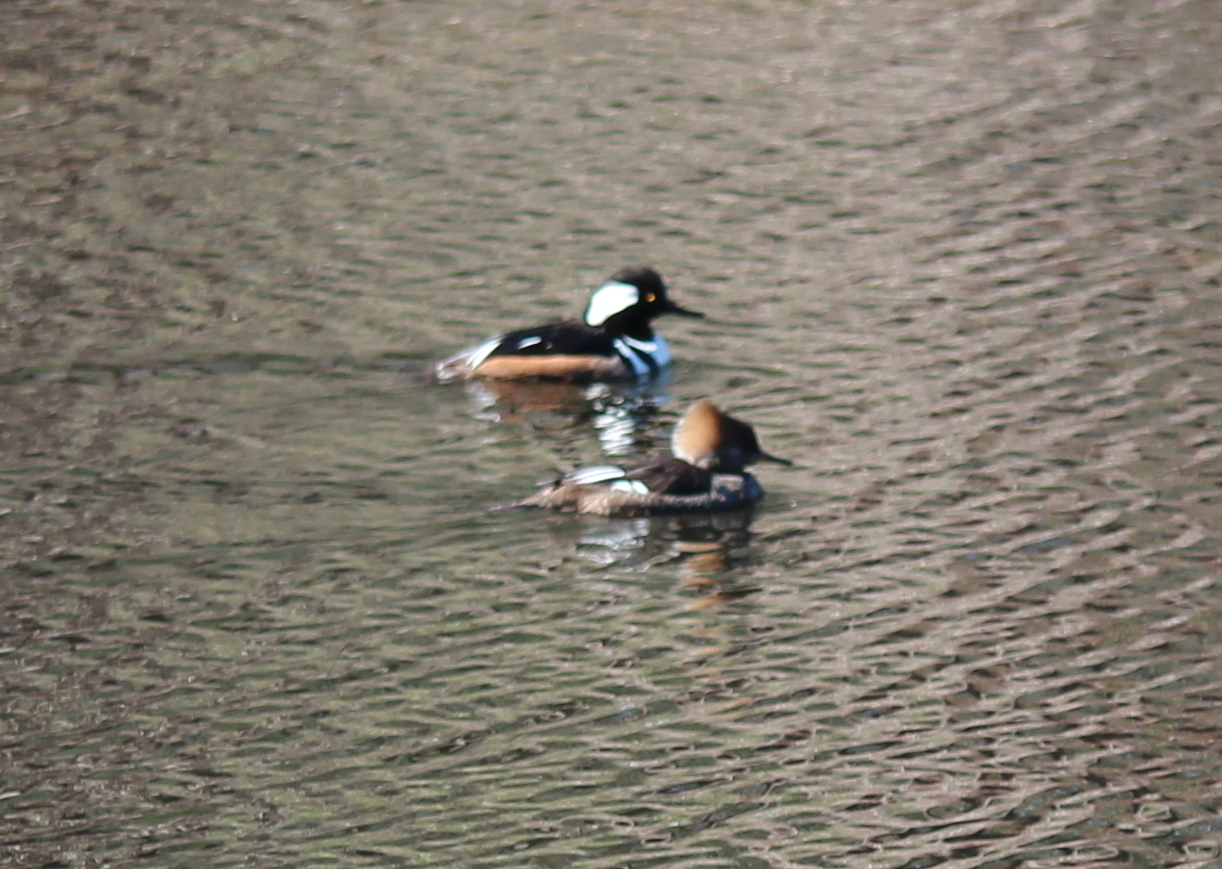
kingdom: Animalia
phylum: Chordata
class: Aves
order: Anseriformes
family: Anatidae
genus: Lophodytes
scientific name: Lophodytes cucullatus
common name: Hooded merganser
